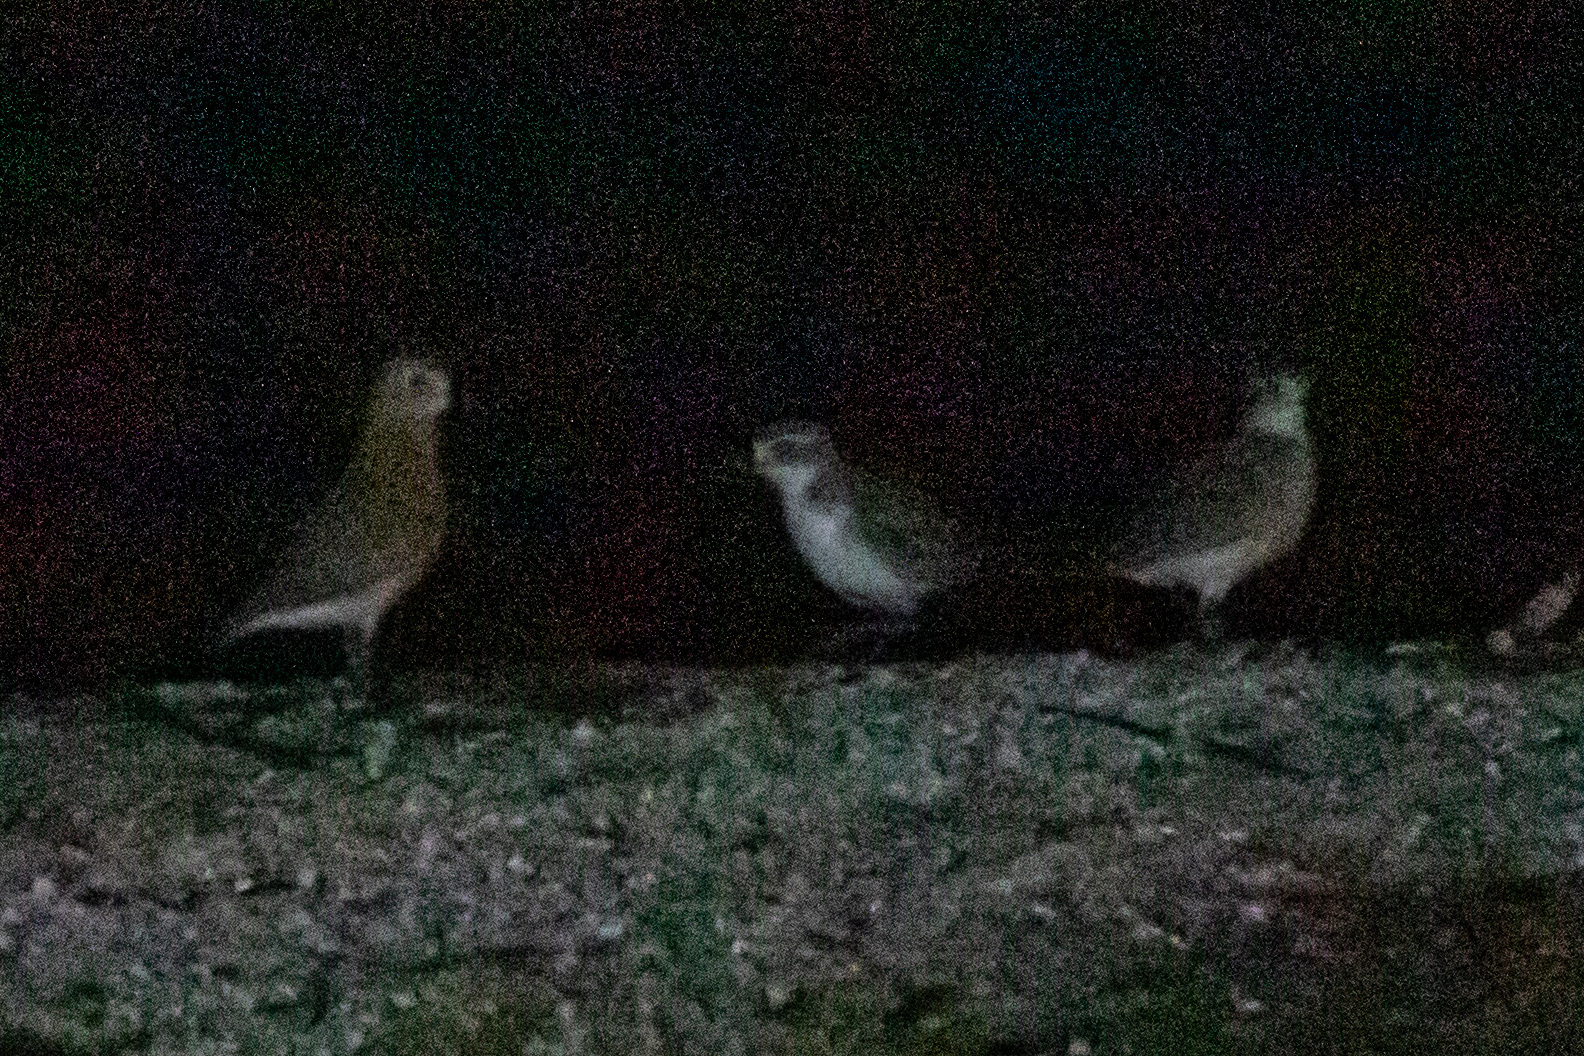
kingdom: Animalia
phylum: Chordata
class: Aves
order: Charadriiformes
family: Charadriidae
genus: Anarhynchus
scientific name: Anarhynchus
